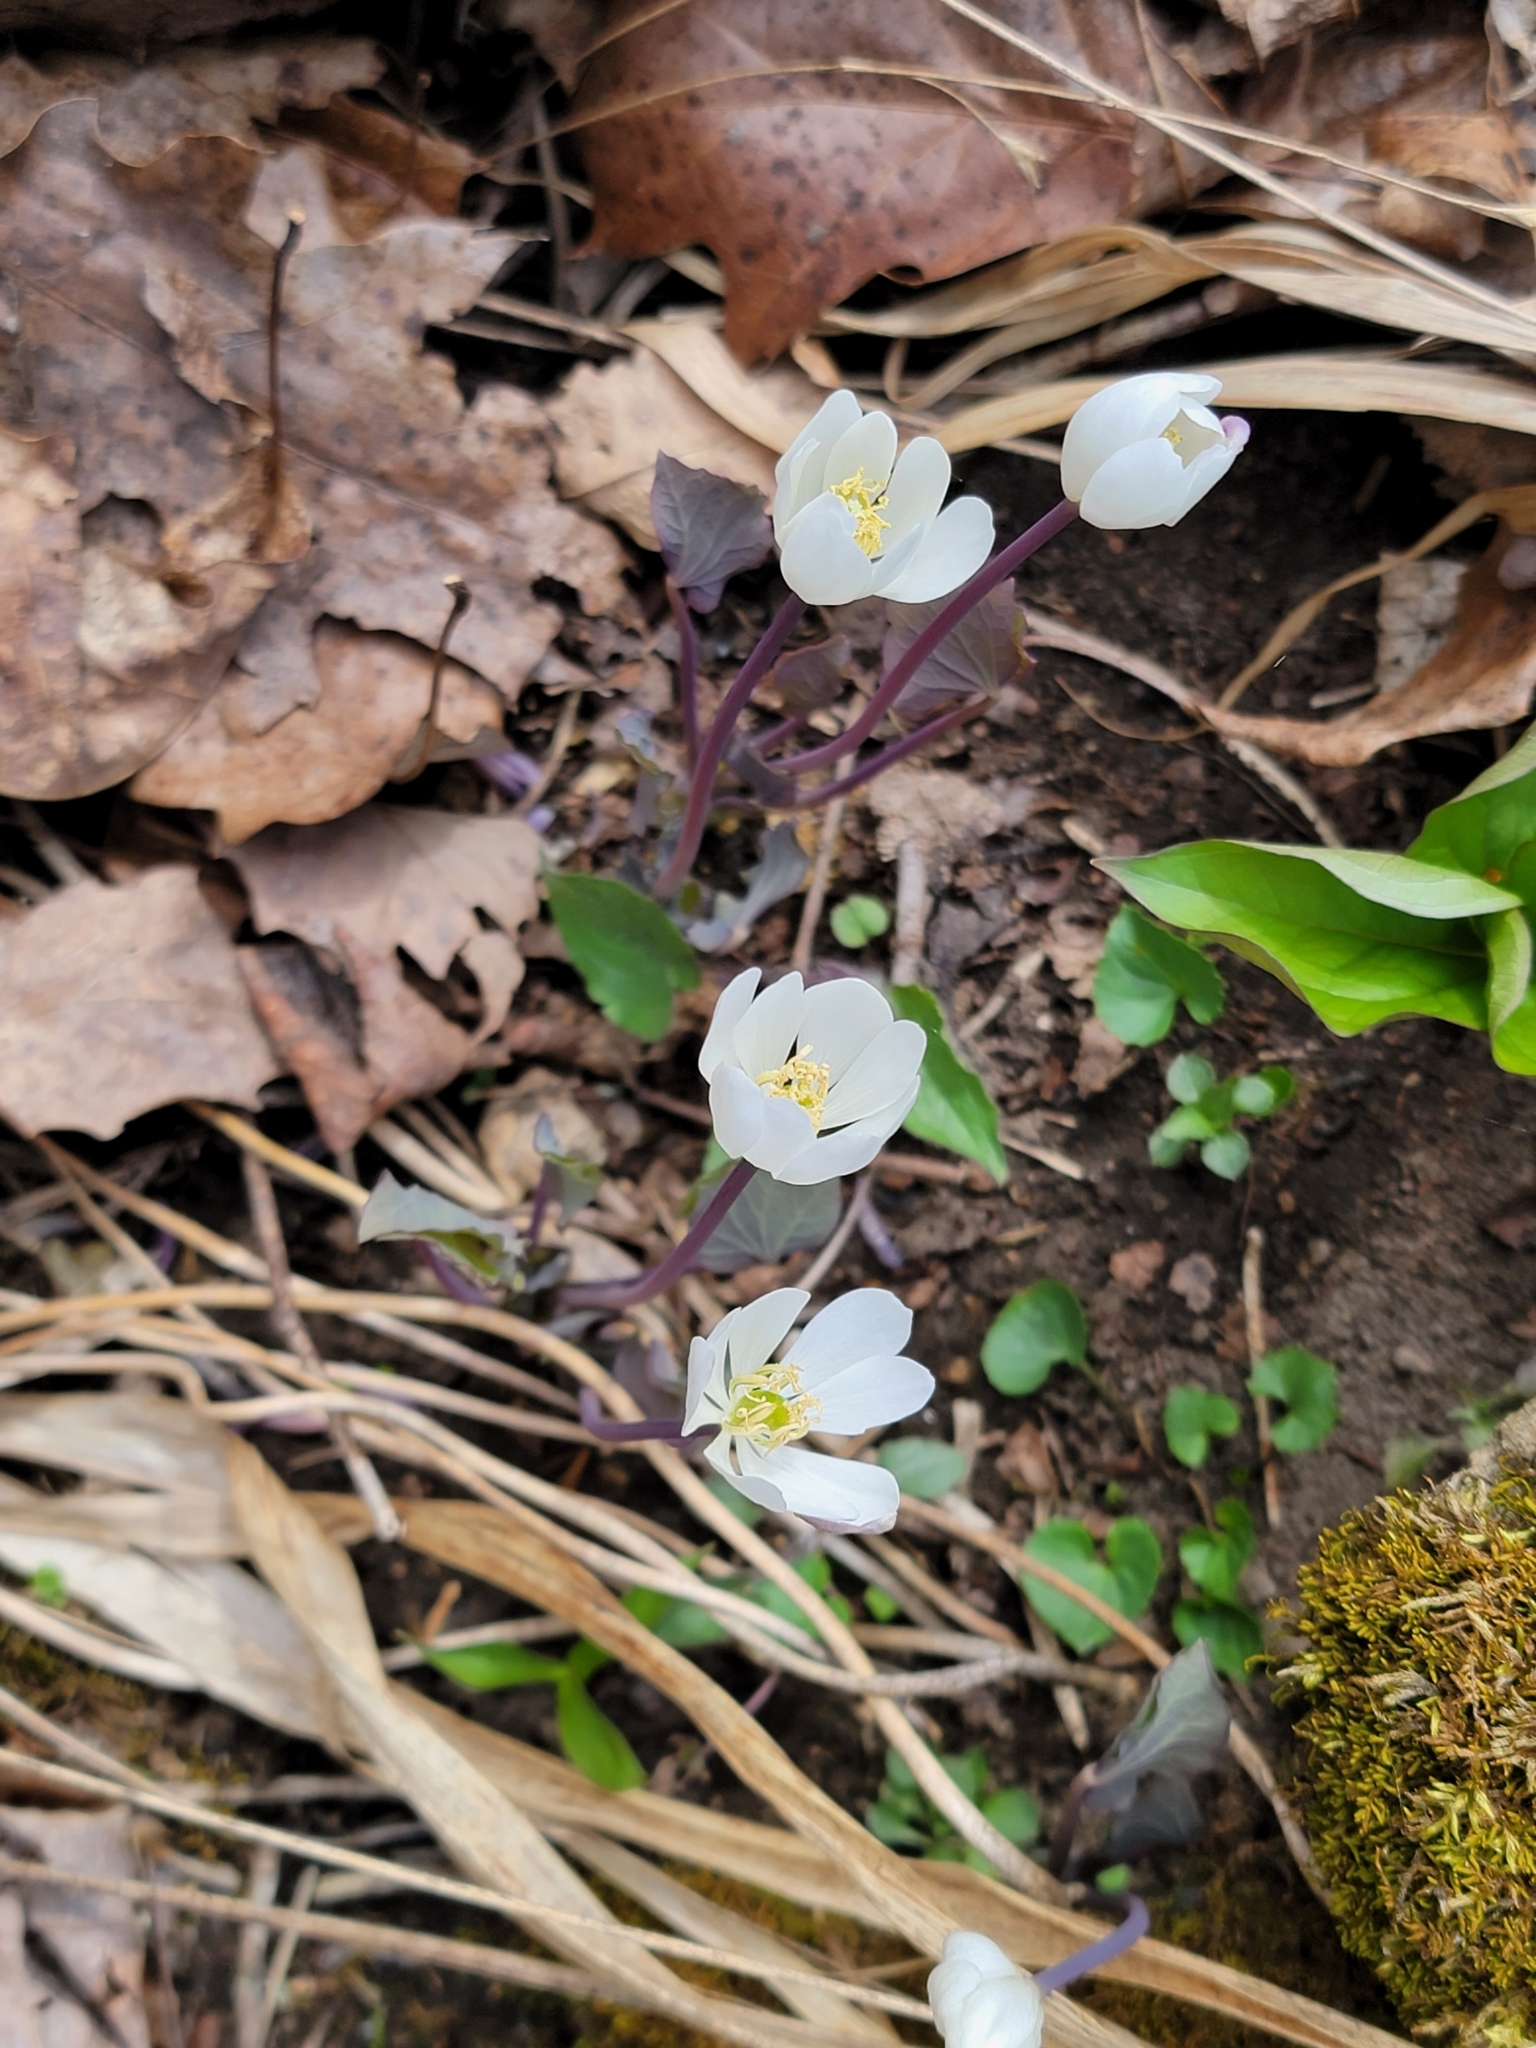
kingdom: Plantae
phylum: Tracheophyta
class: Magnoliopsida
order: Ranunculales
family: Berberidaceae
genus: Jeffersonia
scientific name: Jeffersonia diphylla
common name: Rheumatism-root
